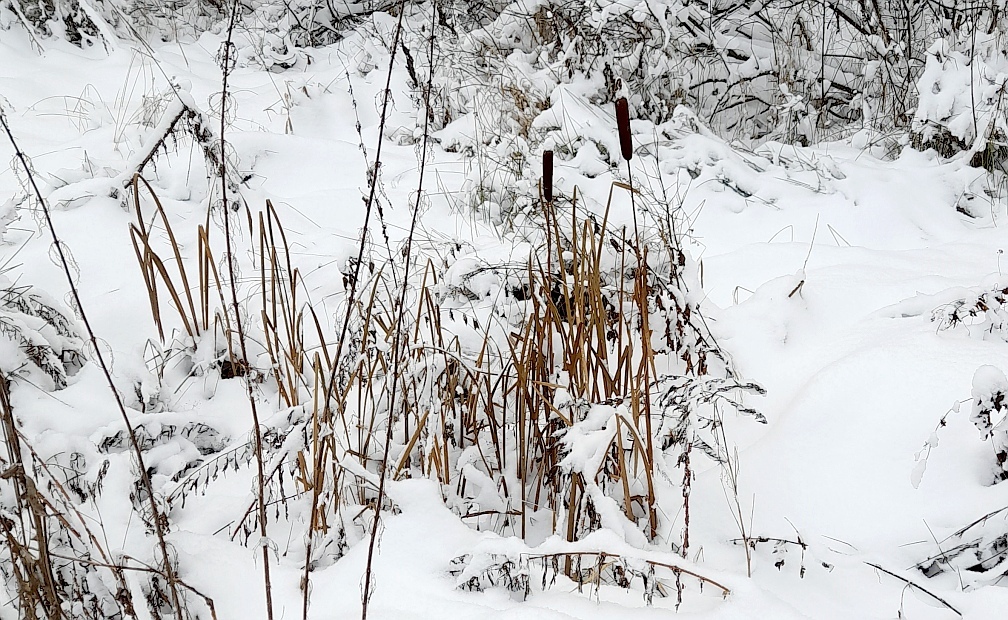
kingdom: Plantae
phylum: Tracheophyta
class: Liliopsida
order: Poales
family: Typhaceae
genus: Typha
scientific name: Typha latifolia
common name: Broadleaf cattail
